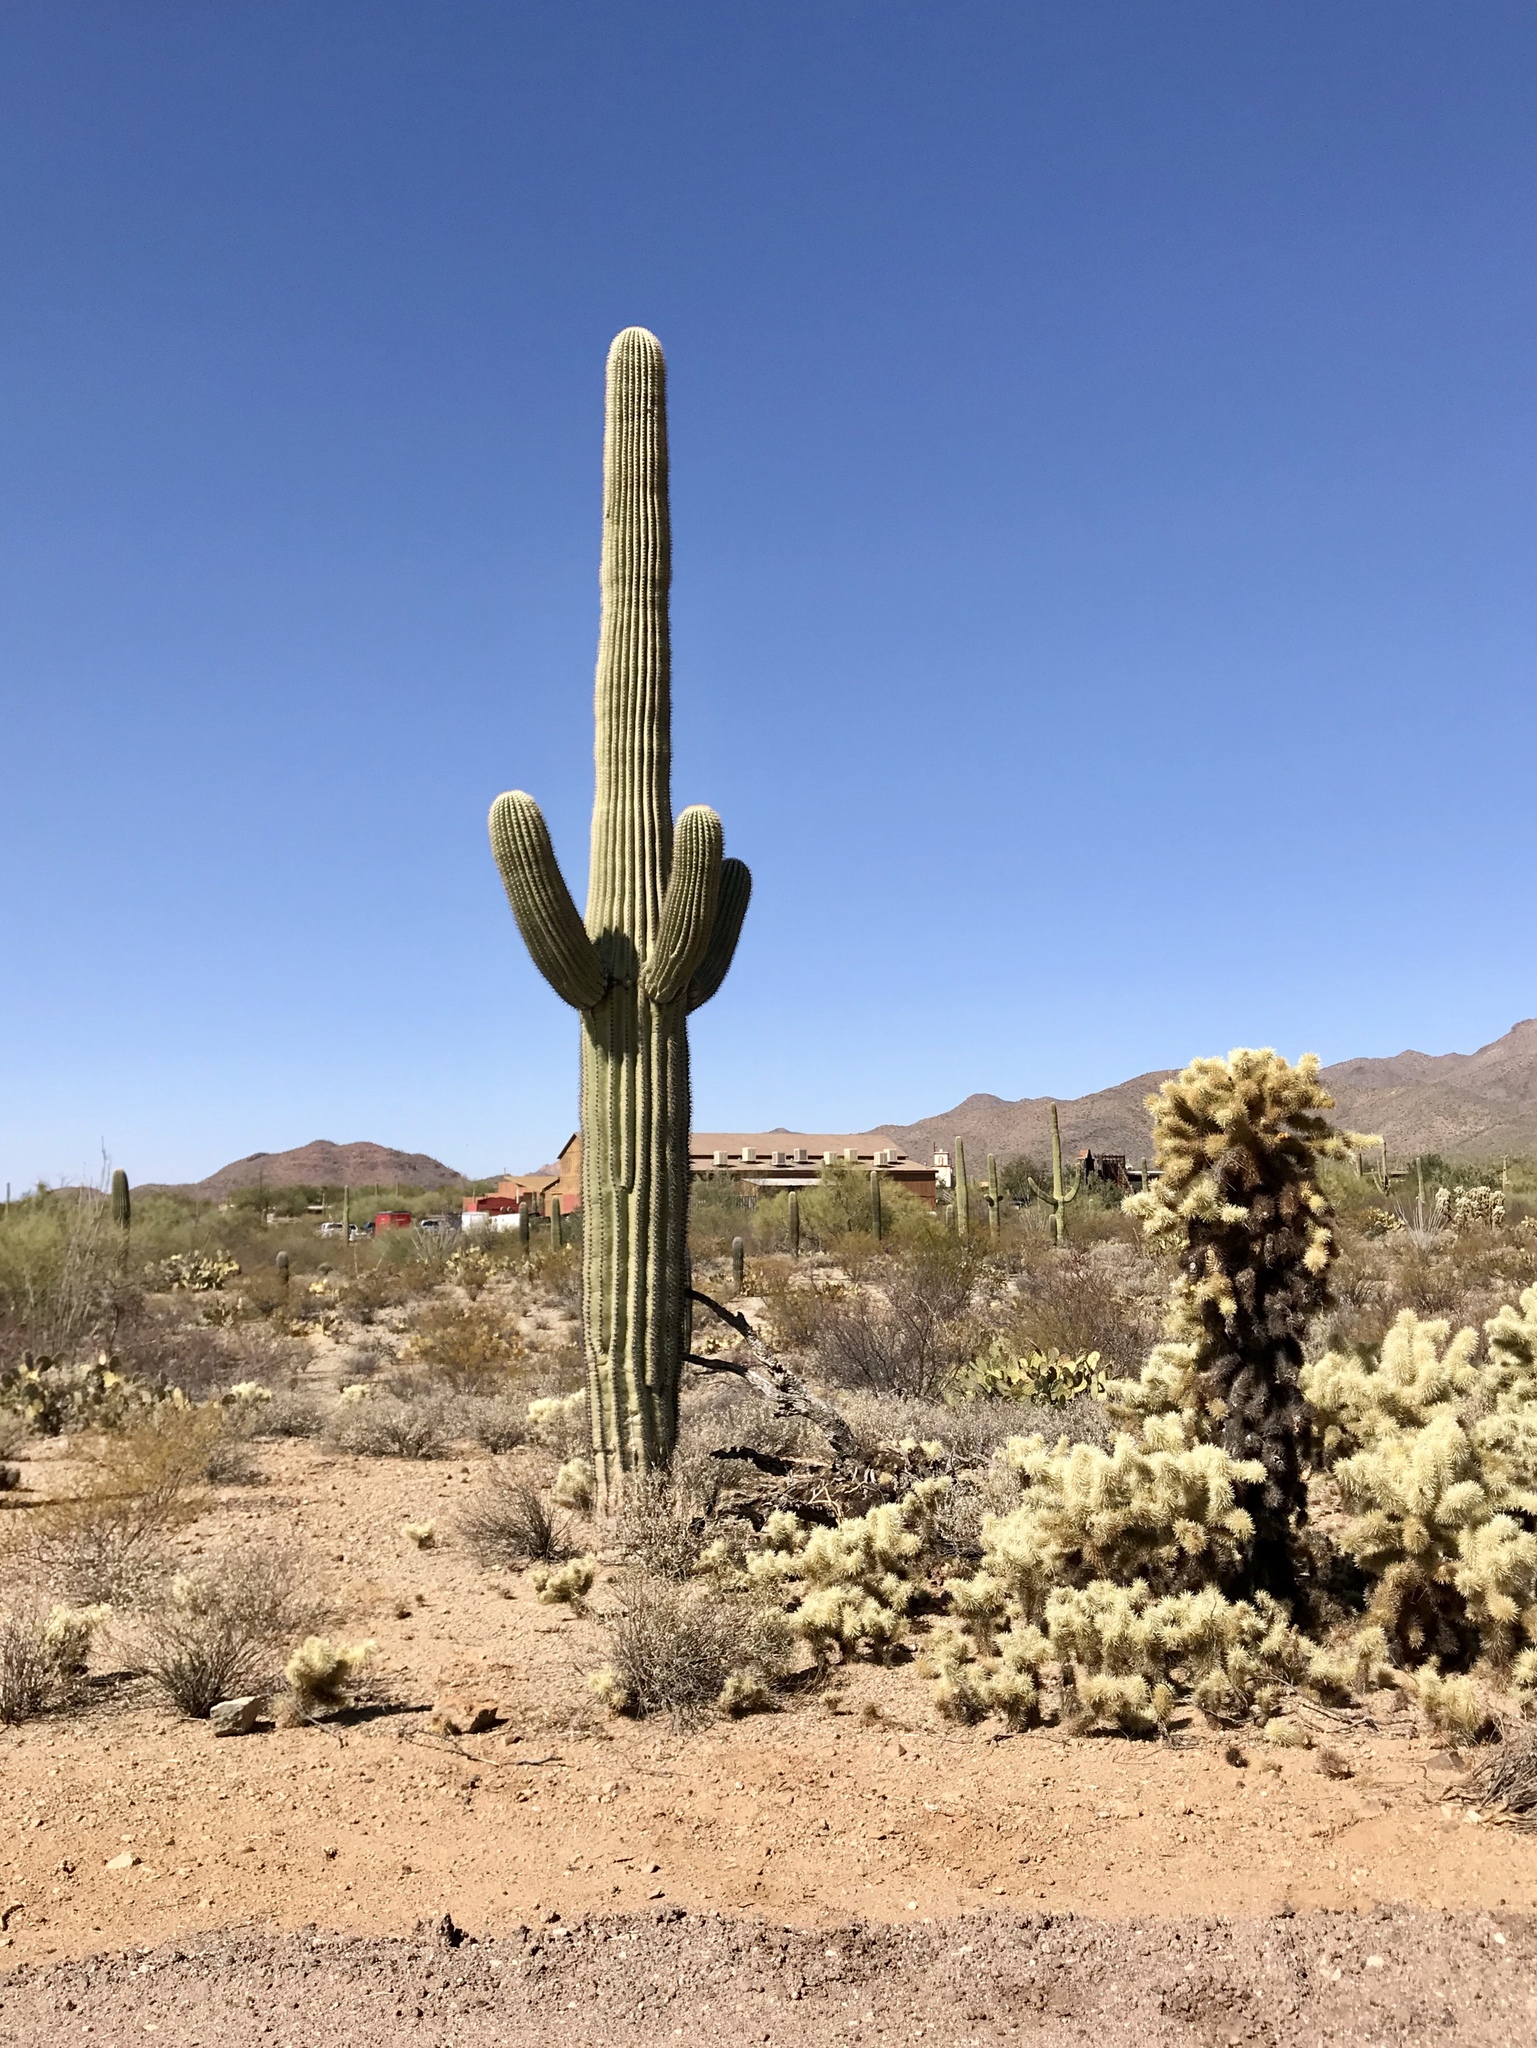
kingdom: Plantae
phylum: Tracheophyta
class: Magnoliopsida
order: Caryophyllales
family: Cactaceae
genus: Carnegiea
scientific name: Carnegiea gigantea
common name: Saguaro
